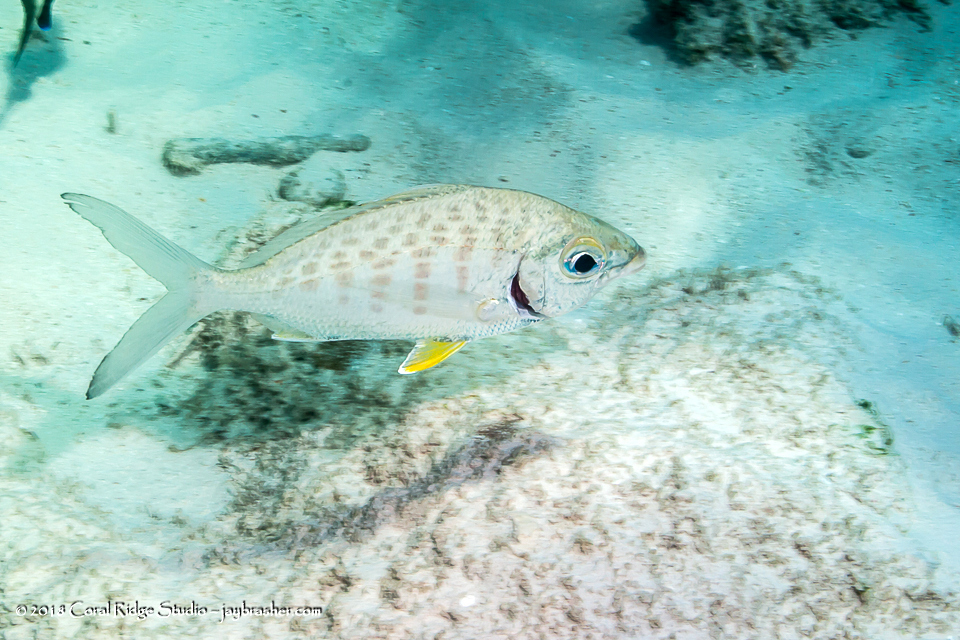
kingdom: Animalia
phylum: Chordata
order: Perciformes
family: Gerreidae
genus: Gerres
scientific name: Gerres cinereus
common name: Hedow
